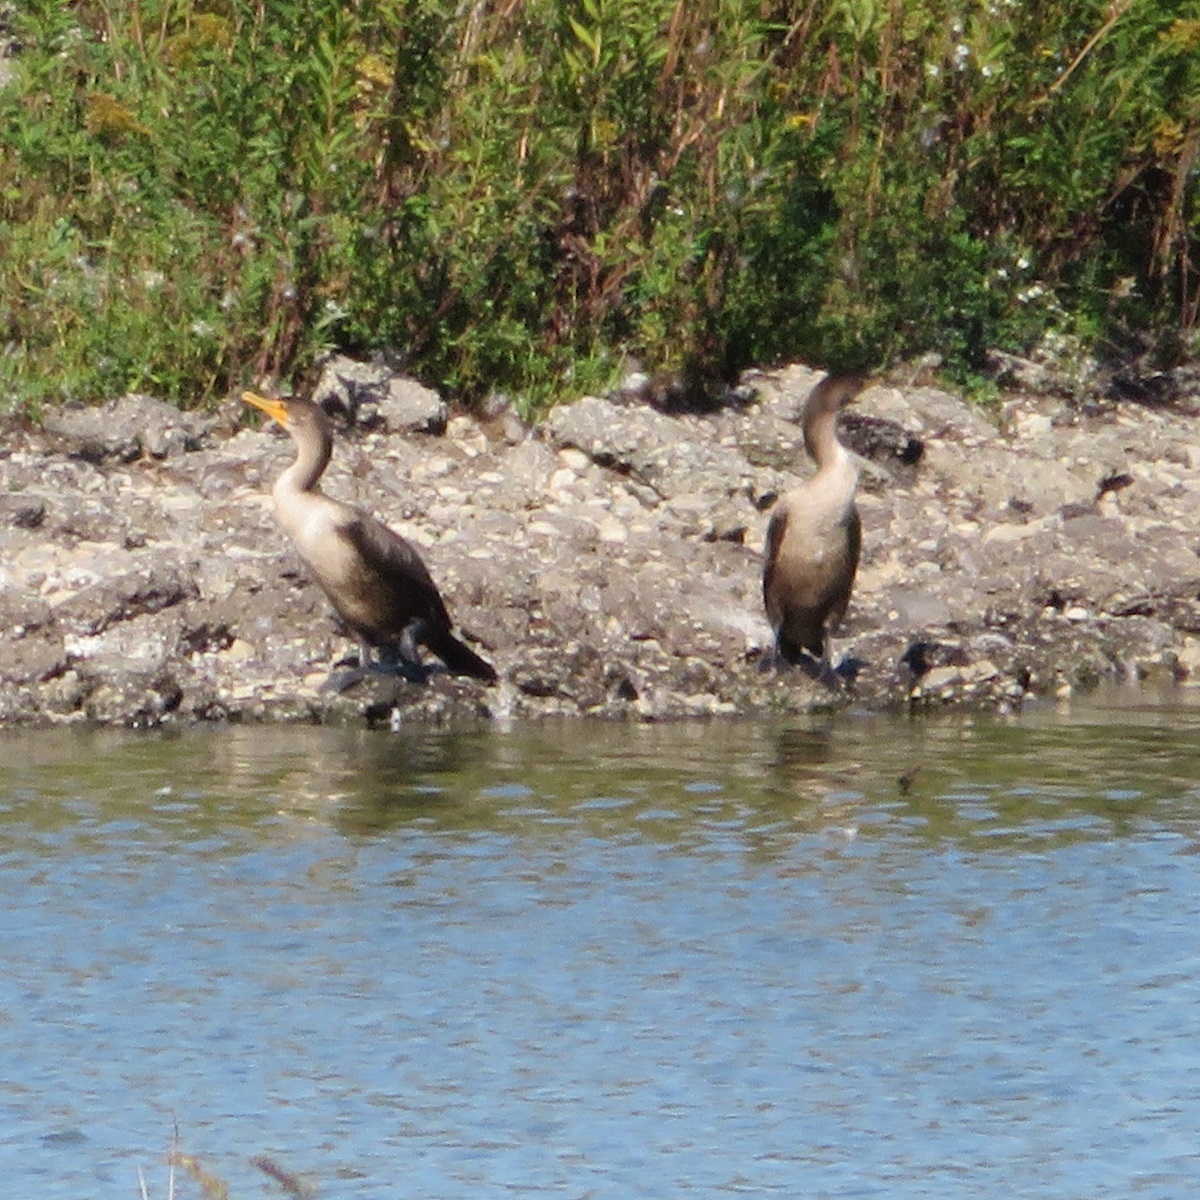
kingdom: Animalia
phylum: Chordata
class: Aves
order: Suliformes
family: Phalacrocoracidae
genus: Phalacrocorax
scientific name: Phalacrocorax auritus
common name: Double-crested cormorant
